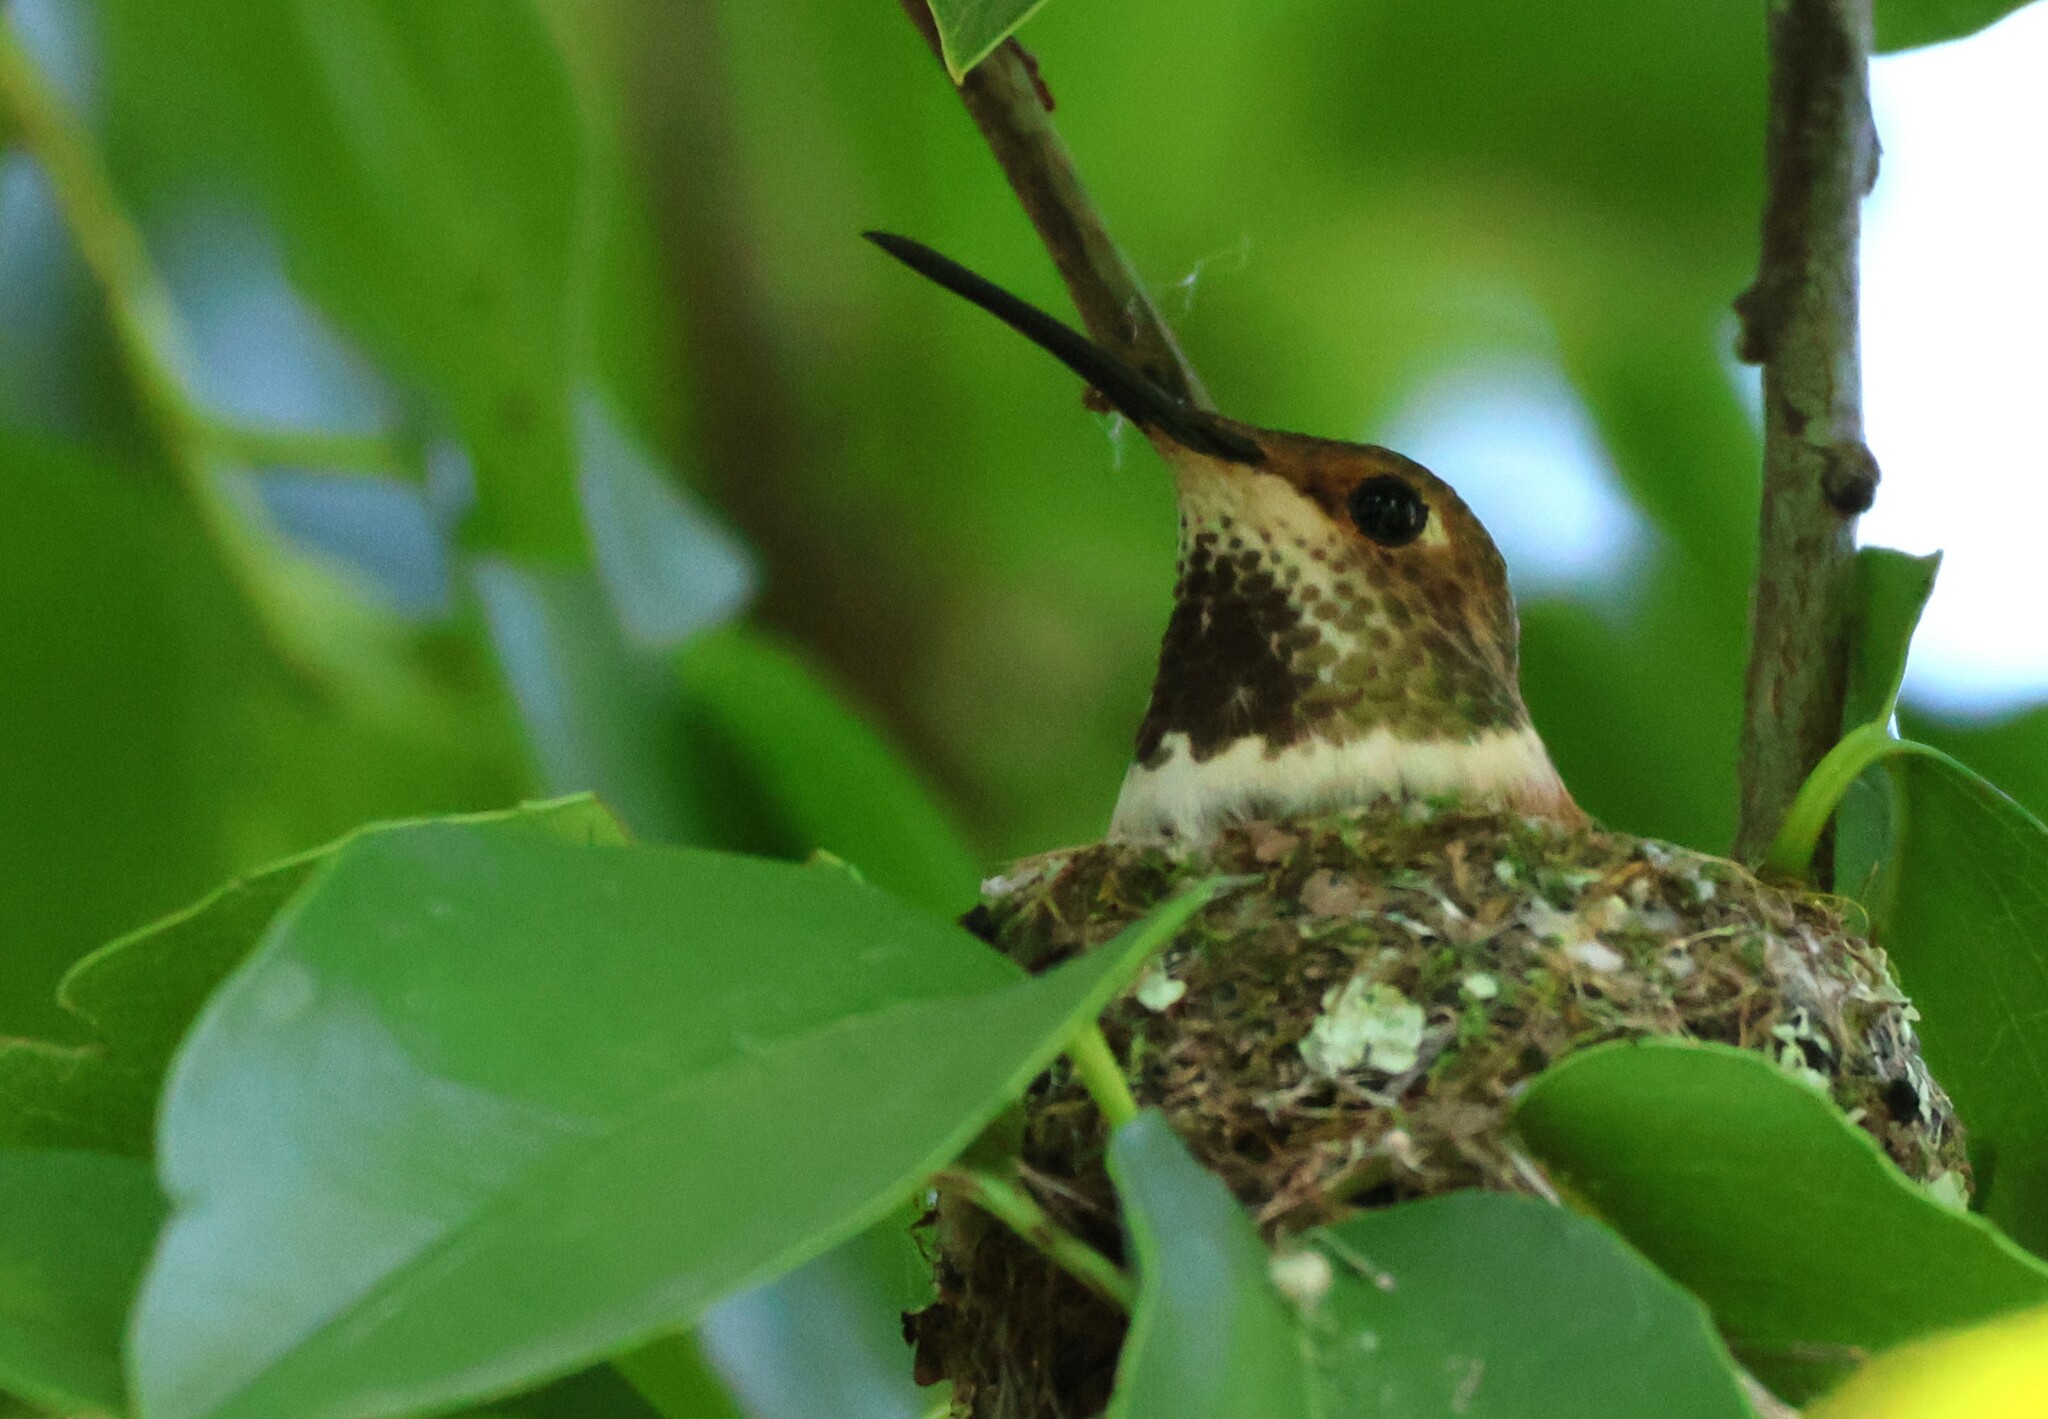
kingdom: Animalia
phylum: Chordata
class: Aves
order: Apodiformes
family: Trochilidae
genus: Selasphorus
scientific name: Selasphorus sasin
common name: Allen's hummingbird
